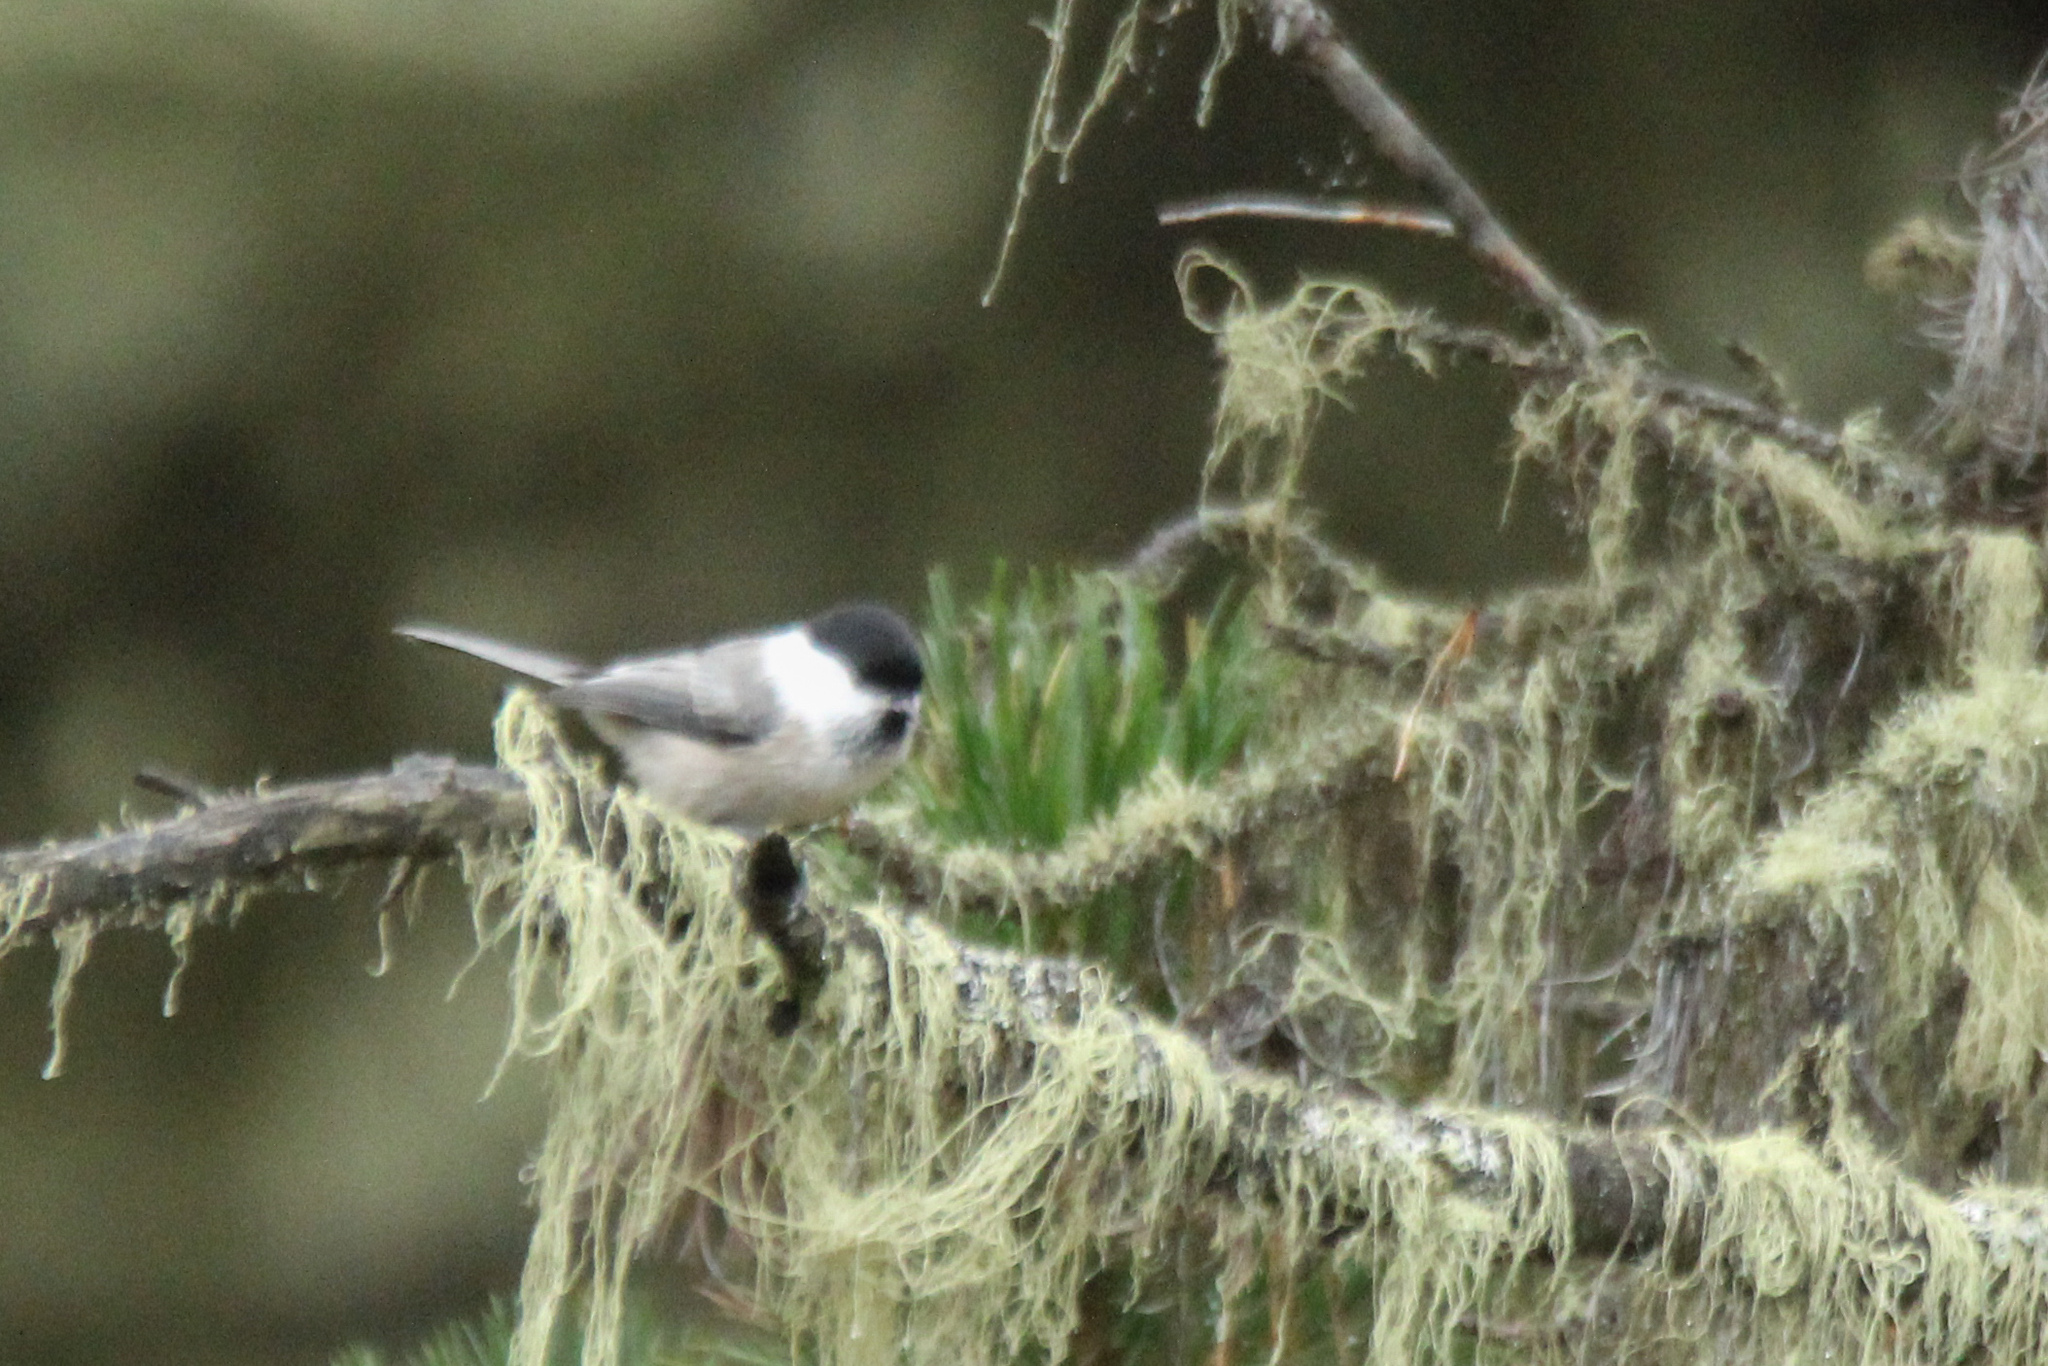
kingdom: Animalia
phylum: Chordata
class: Aves
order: Passeriformes
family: Paridae
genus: Poecile
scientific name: Poecile montanus
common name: Willow tit
